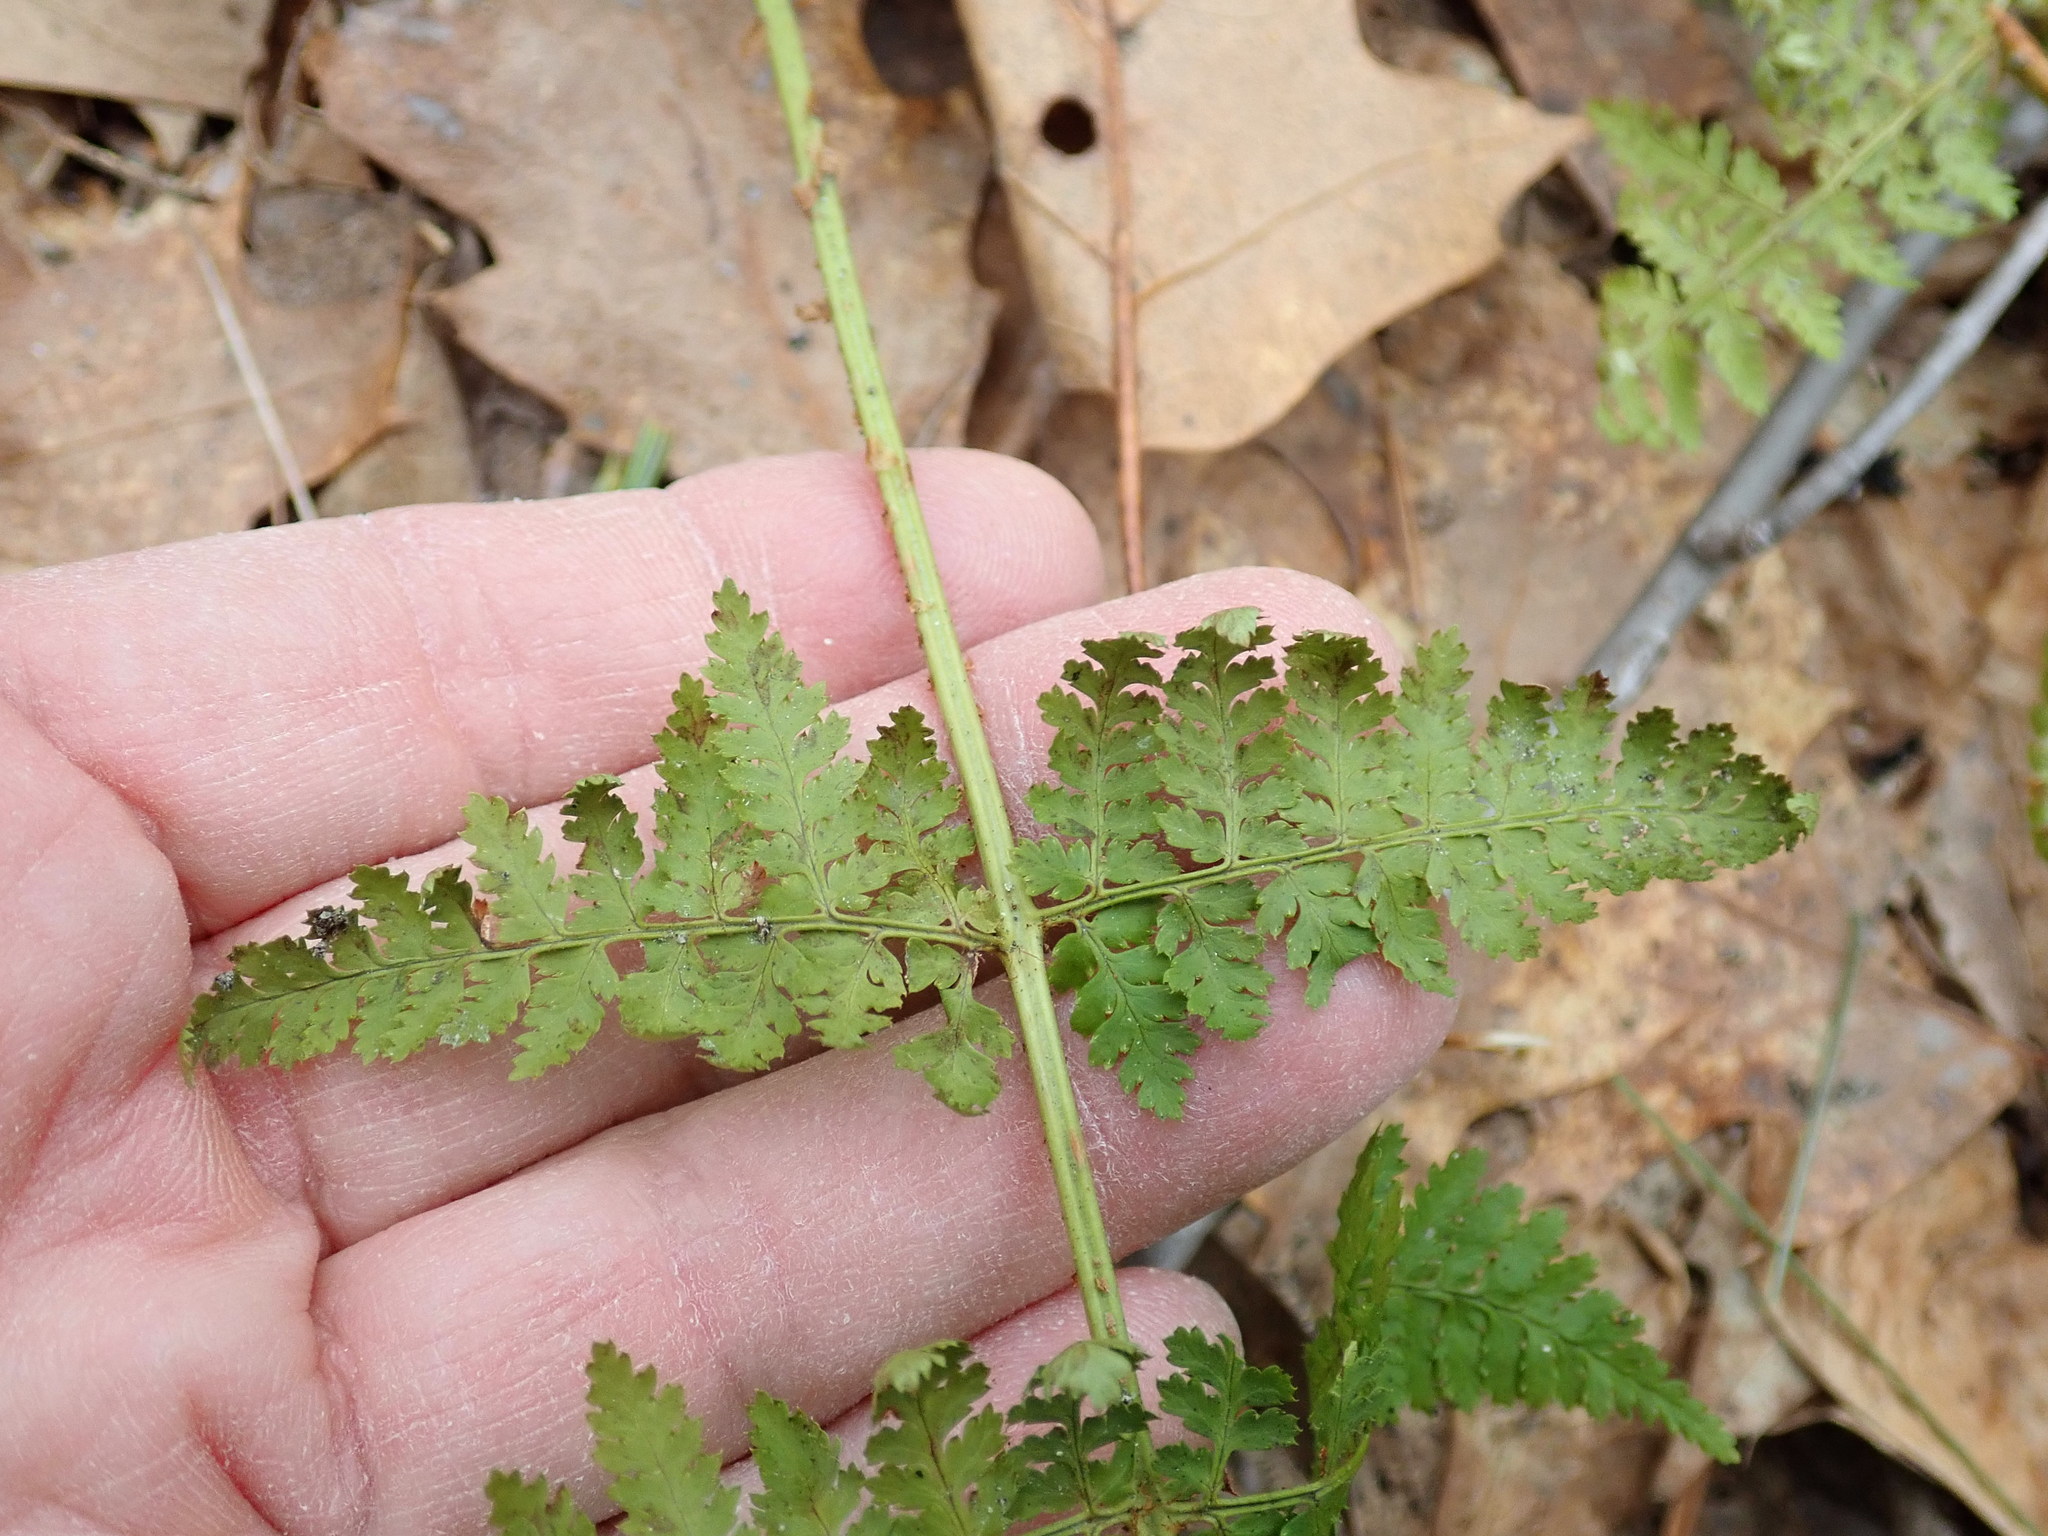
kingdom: Plantae
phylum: Tracheophyta
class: Polypodiopsida
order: Polypodiales
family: Dryopteridaceae
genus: Dryopteris
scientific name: Dryopteris intermedia
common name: Evergreen wood fern
